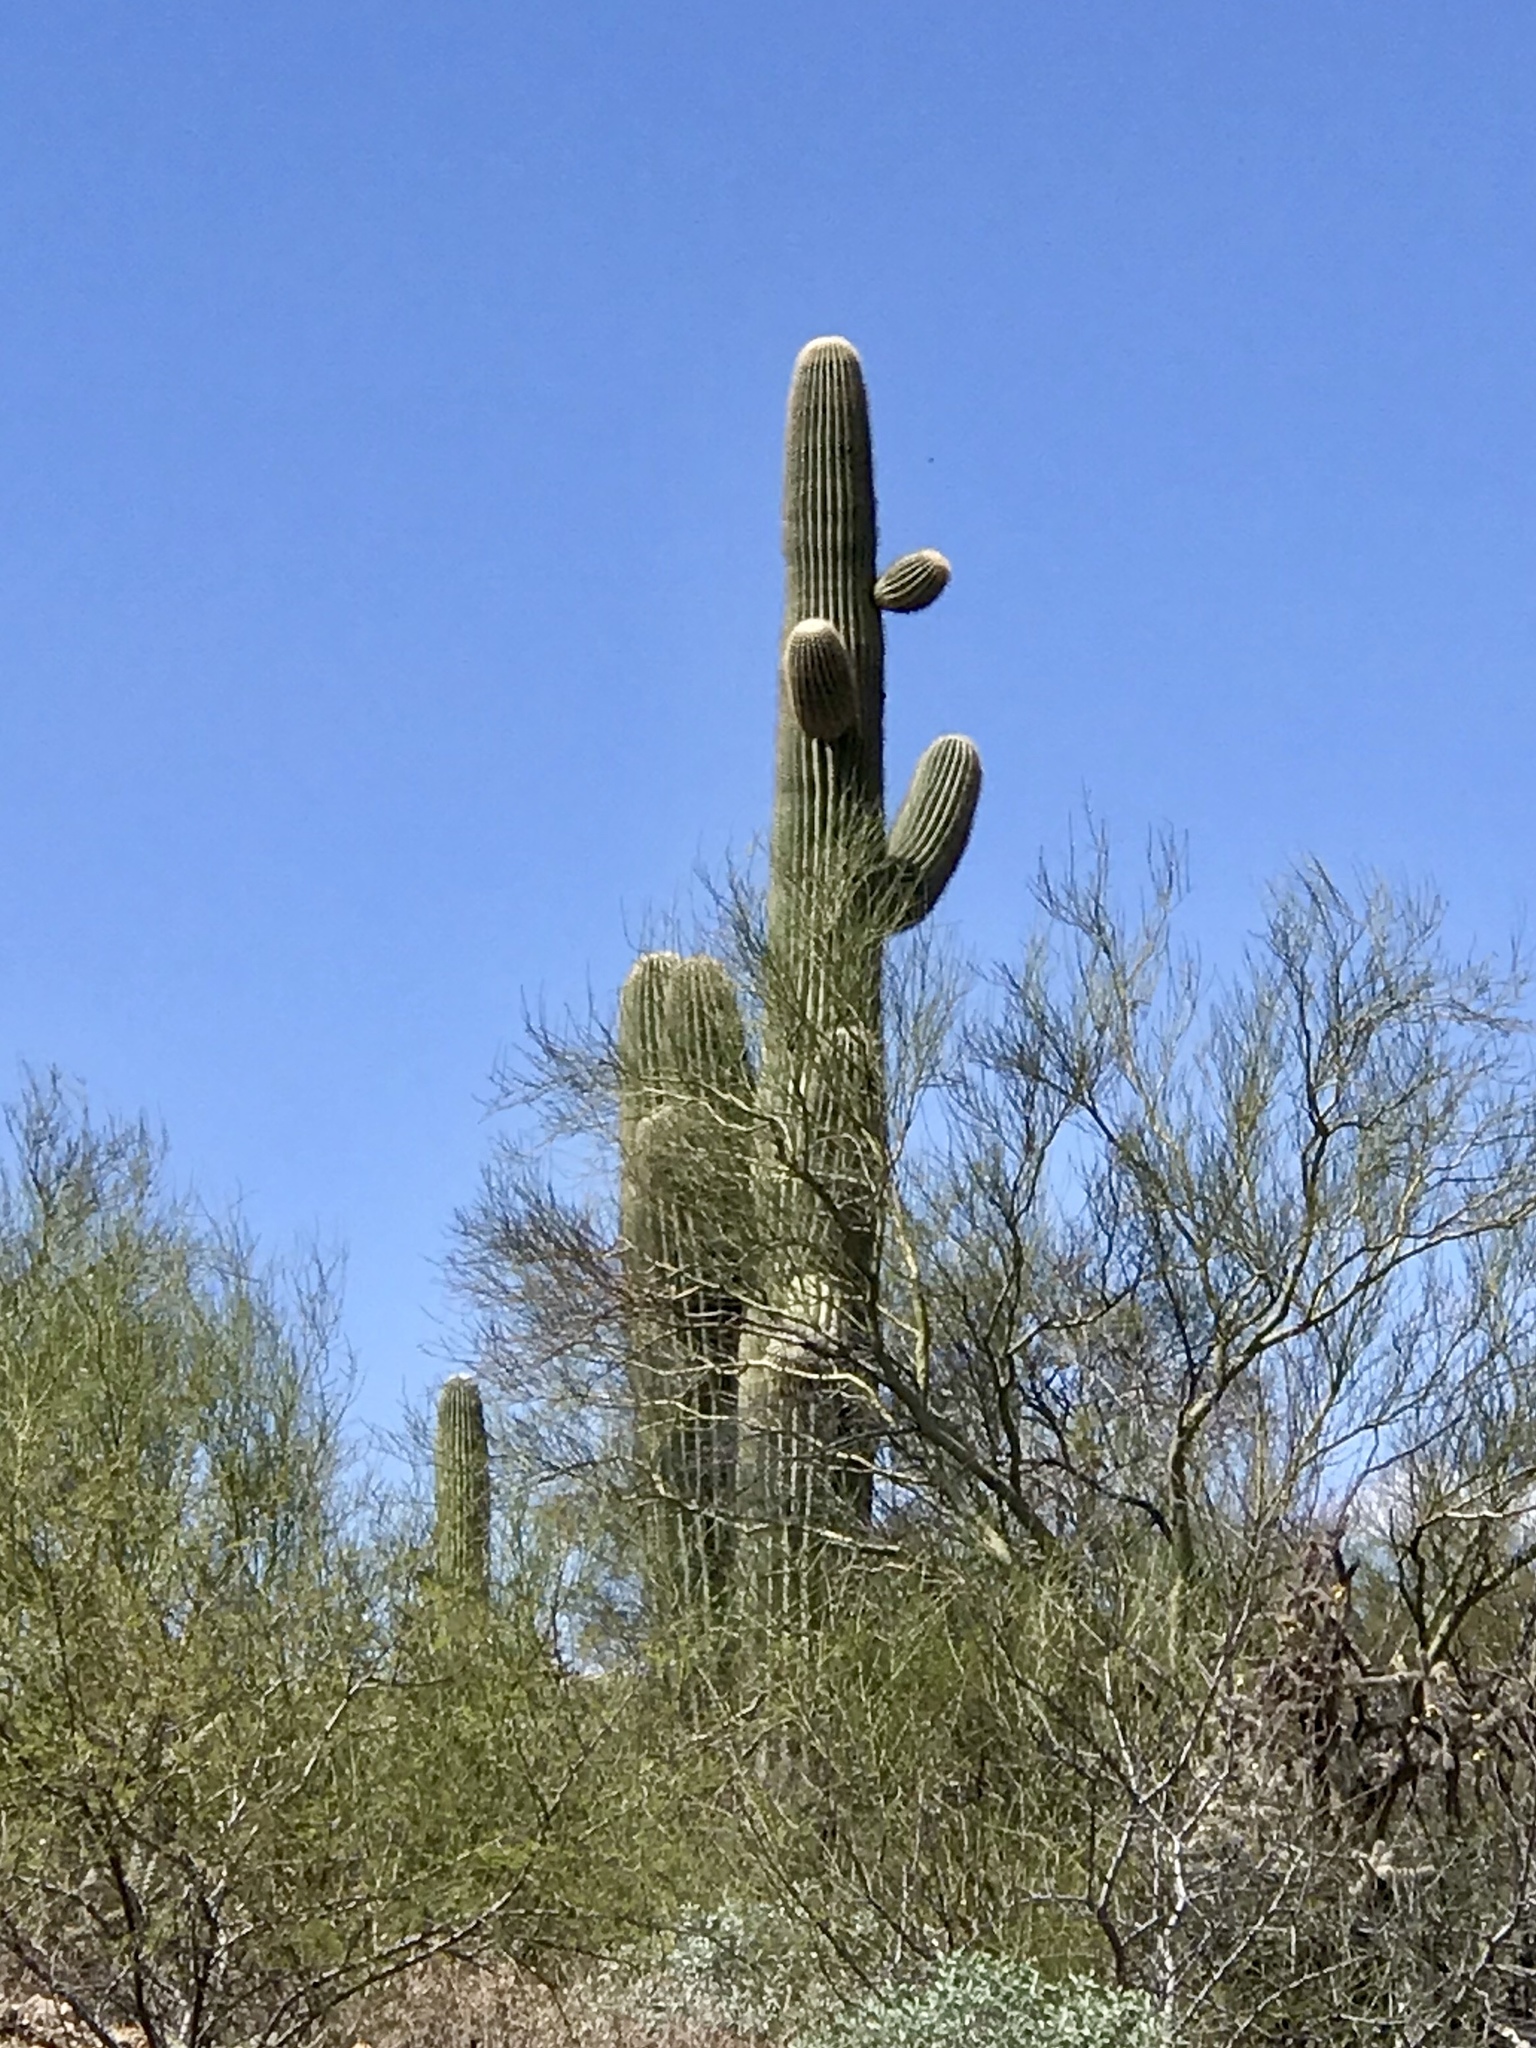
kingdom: Plantae
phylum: Tracheophyta
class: Magnoliopsida
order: Caryophyllales
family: Cactaceae
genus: Carnegiea
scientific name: Carnegiea gigantea
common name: Saguaro
